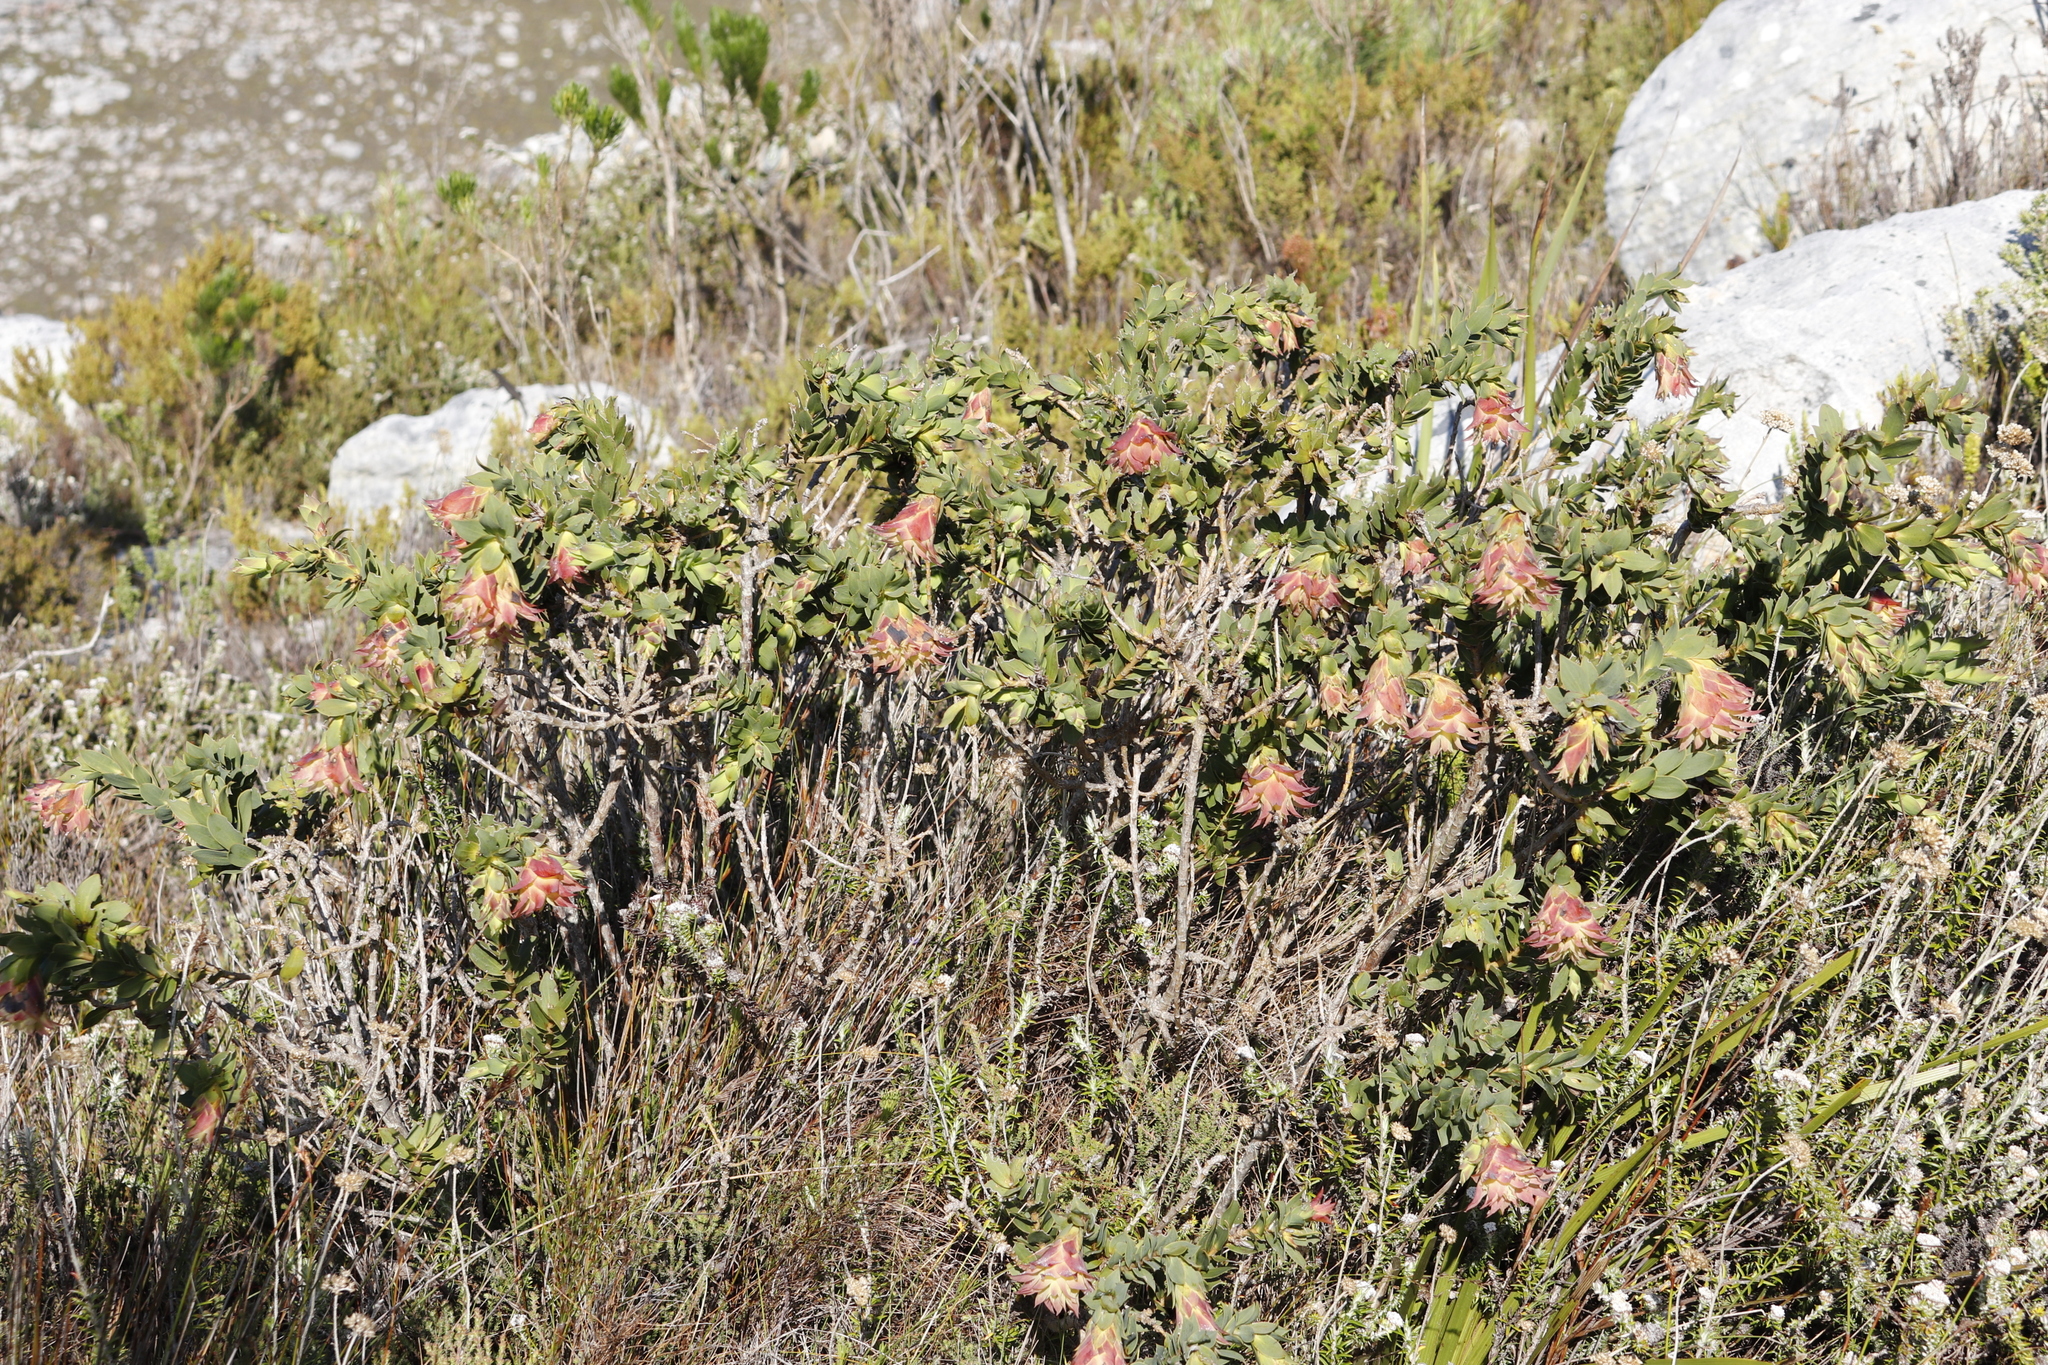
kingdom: Plantae
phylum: Tracheophyta
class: Magnoliopsida
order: Fabales
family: Fabaceae
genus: Liparia
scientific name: Liparia splendens
